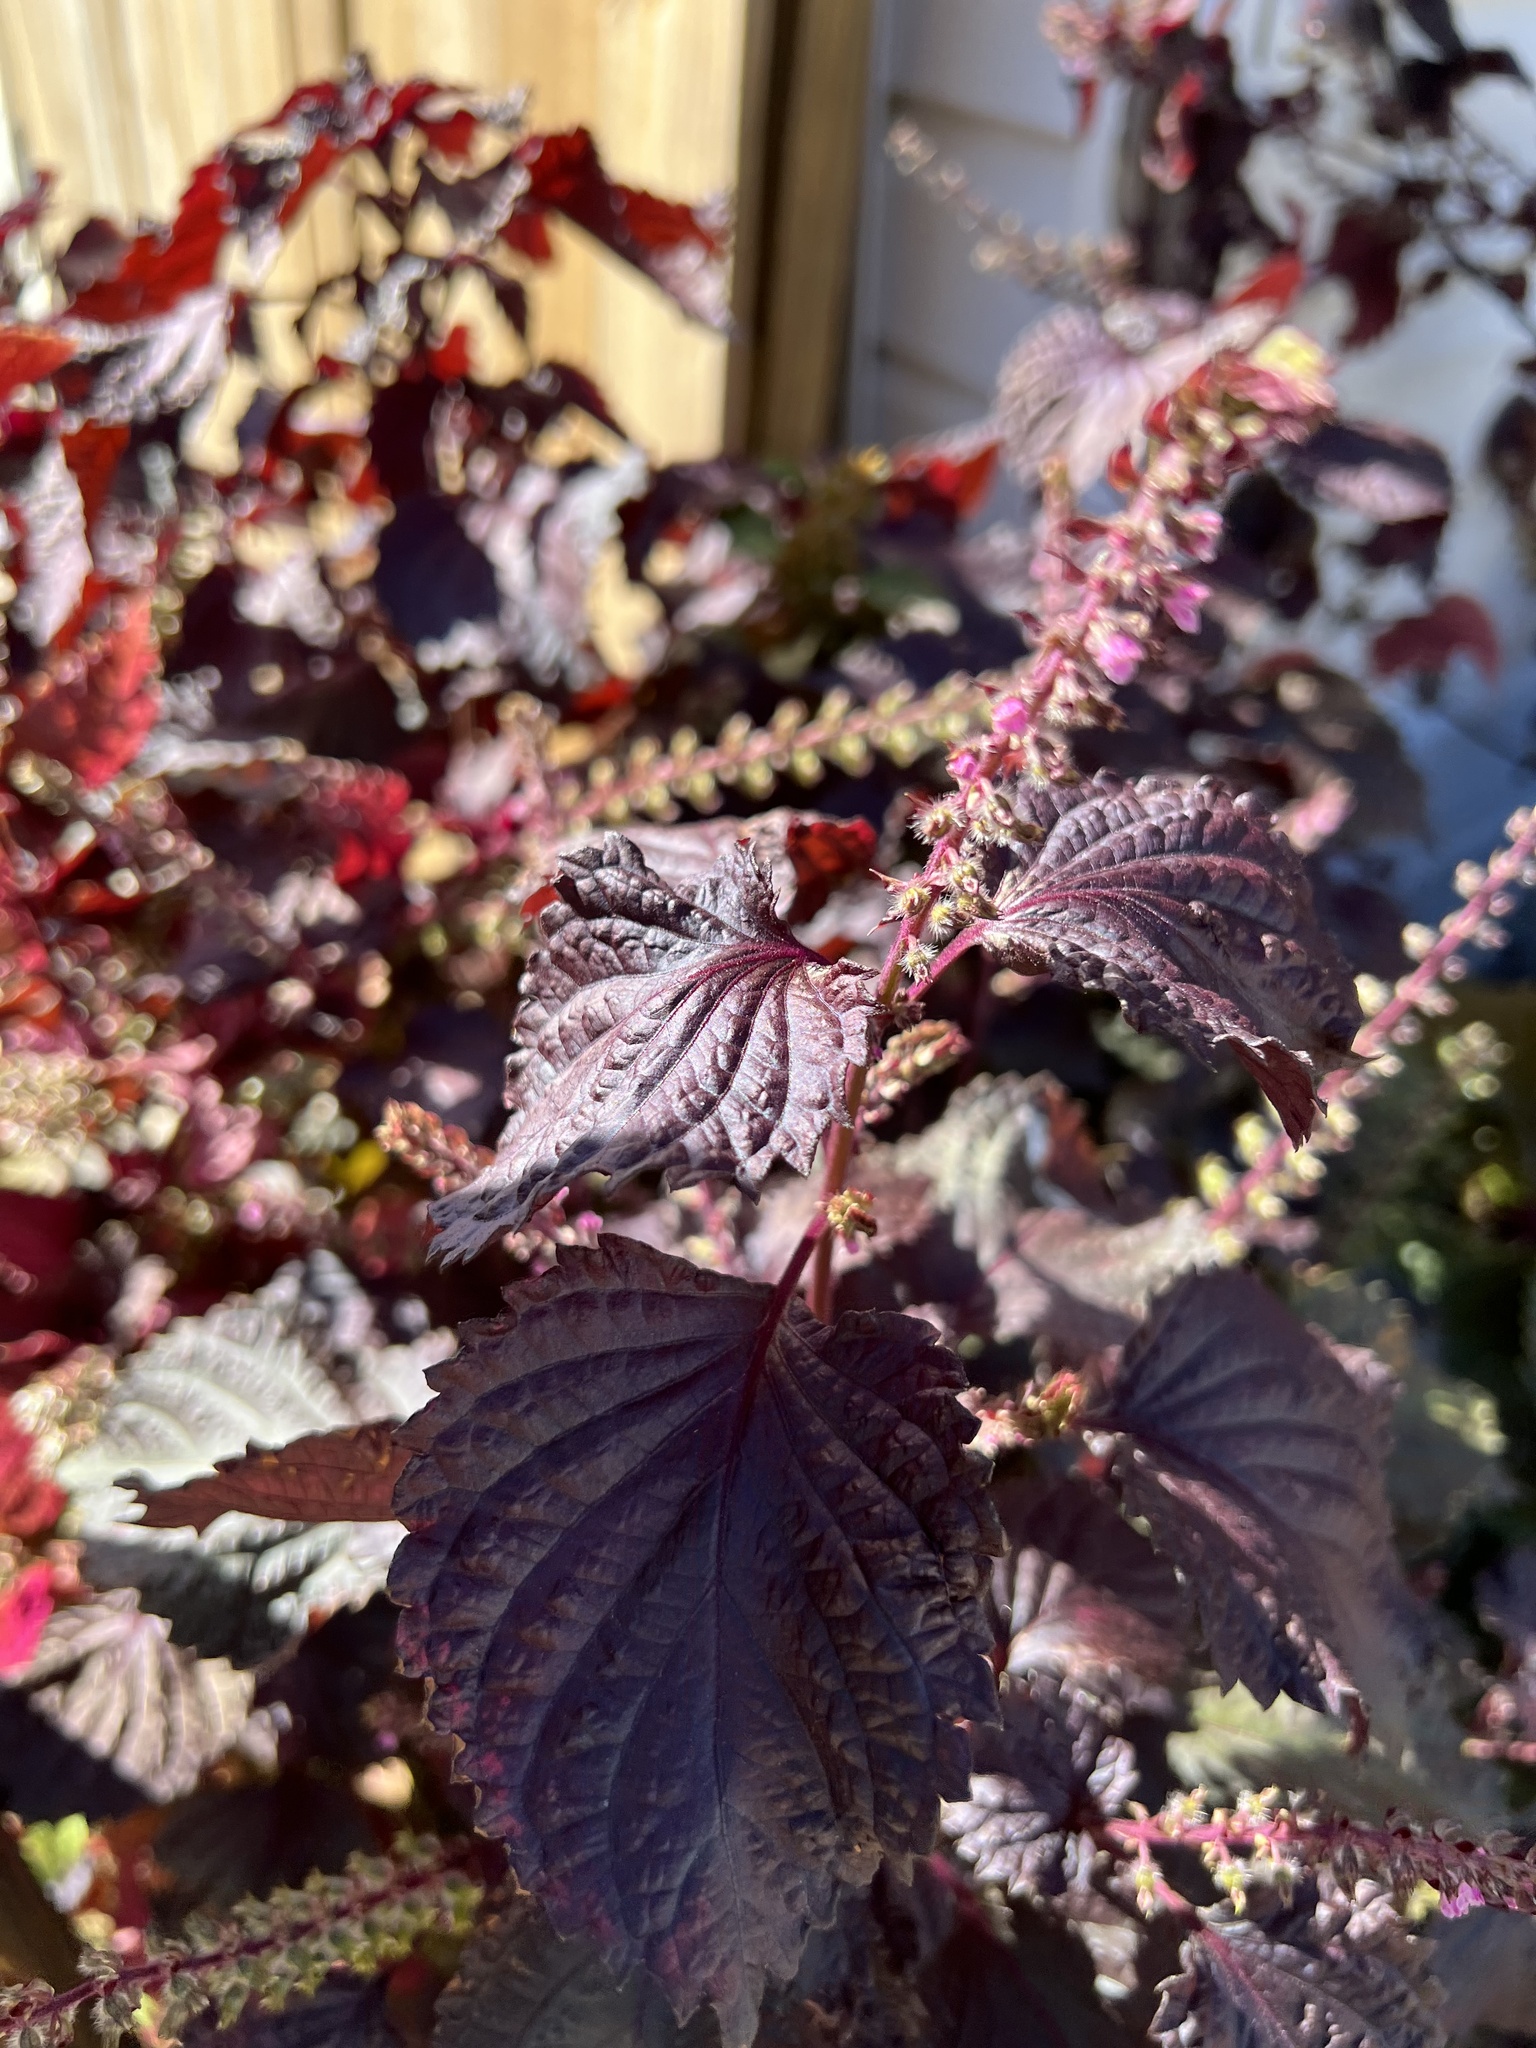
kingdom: Plantae
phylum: Tracheophyta
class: Magnoliopsida
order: Lamiales
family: Lamiaceae
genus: Perilla
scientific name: Perilla frutescens
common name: Perilla
